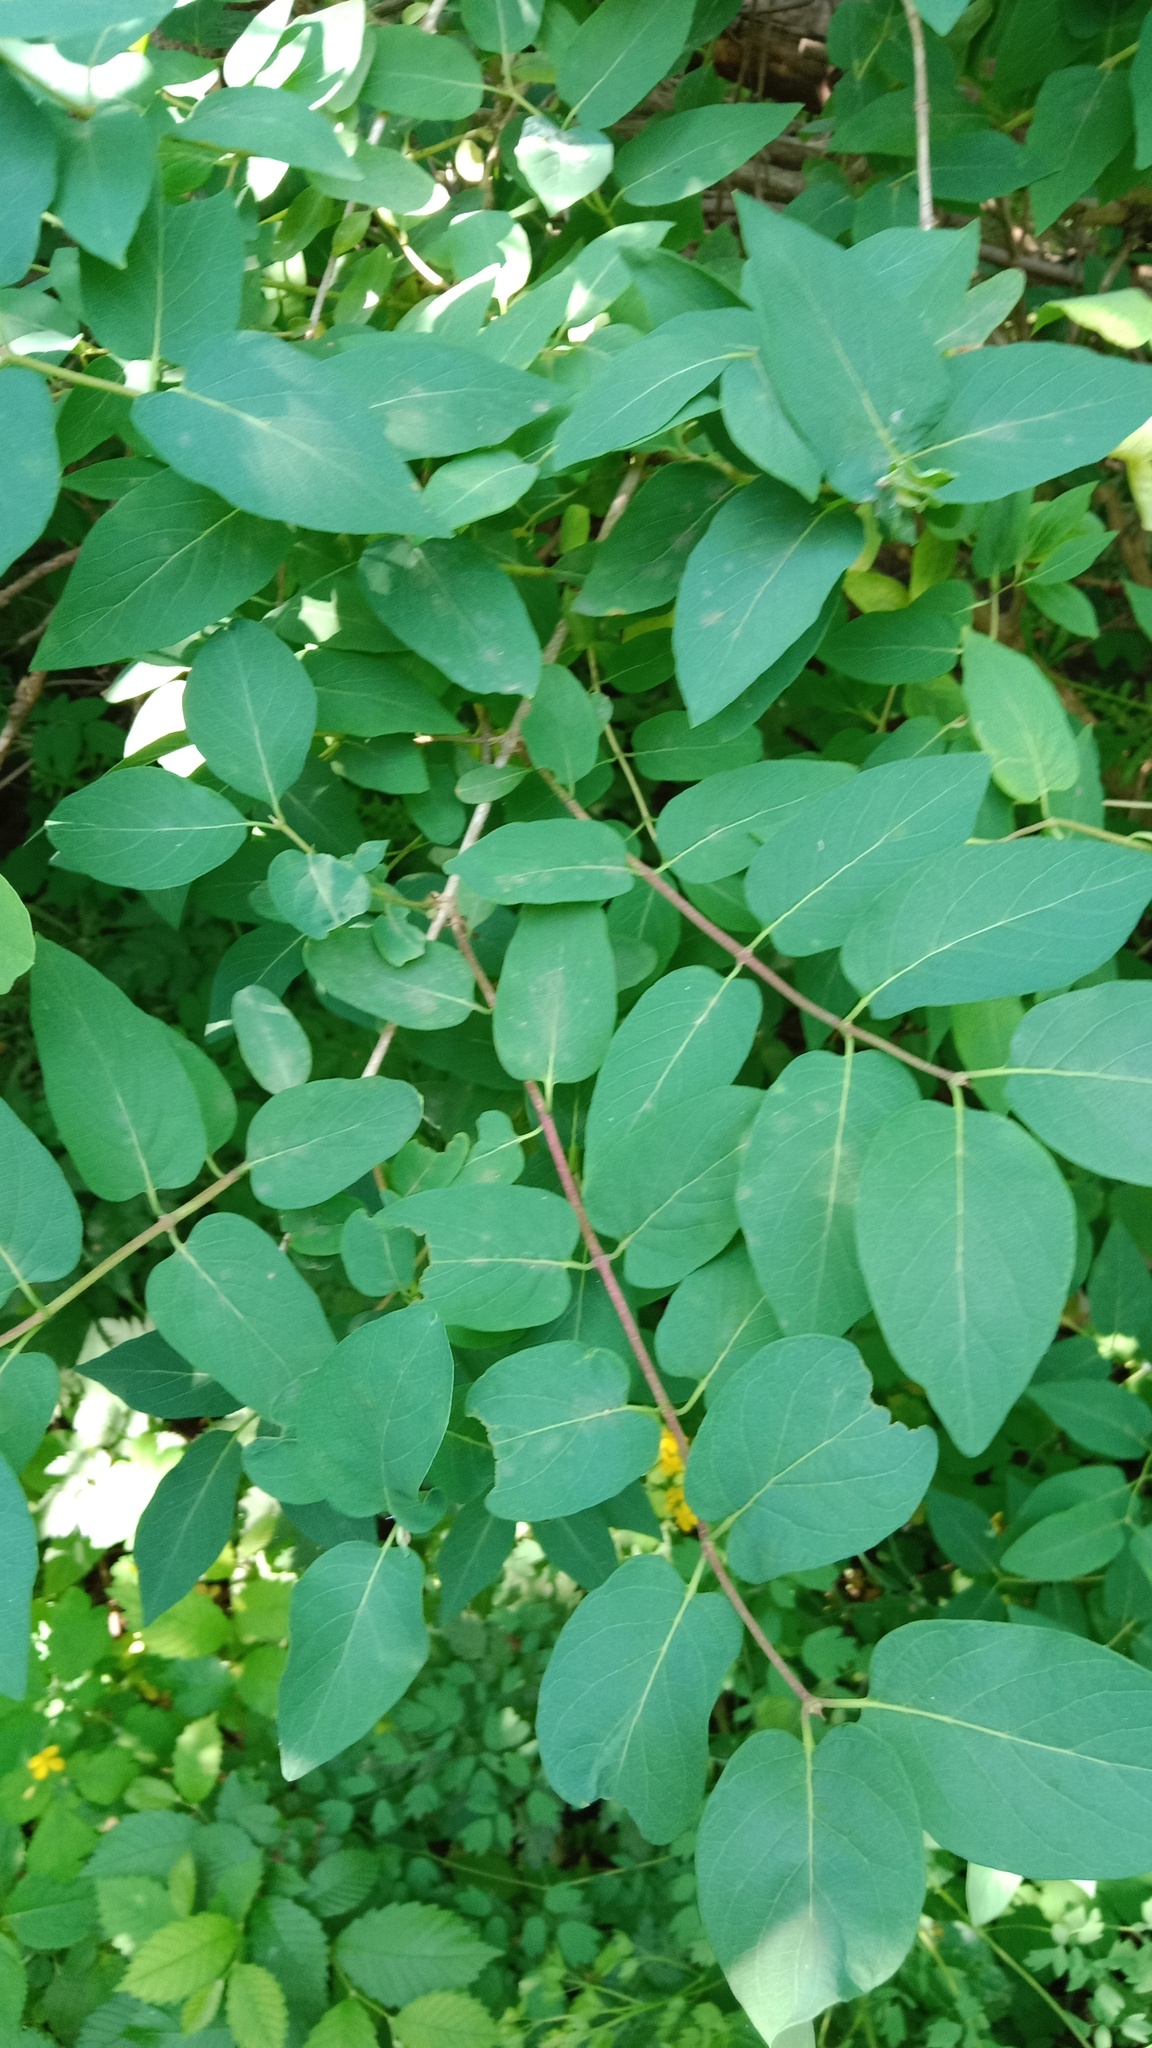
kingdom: Plantae
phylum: Tracheophyta
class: Magnoliopsida
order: Dipsacales
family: Caprifoliaceae
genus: Lonicera
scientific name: Lonicera tatarica
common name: Tatarian honeysuckle
